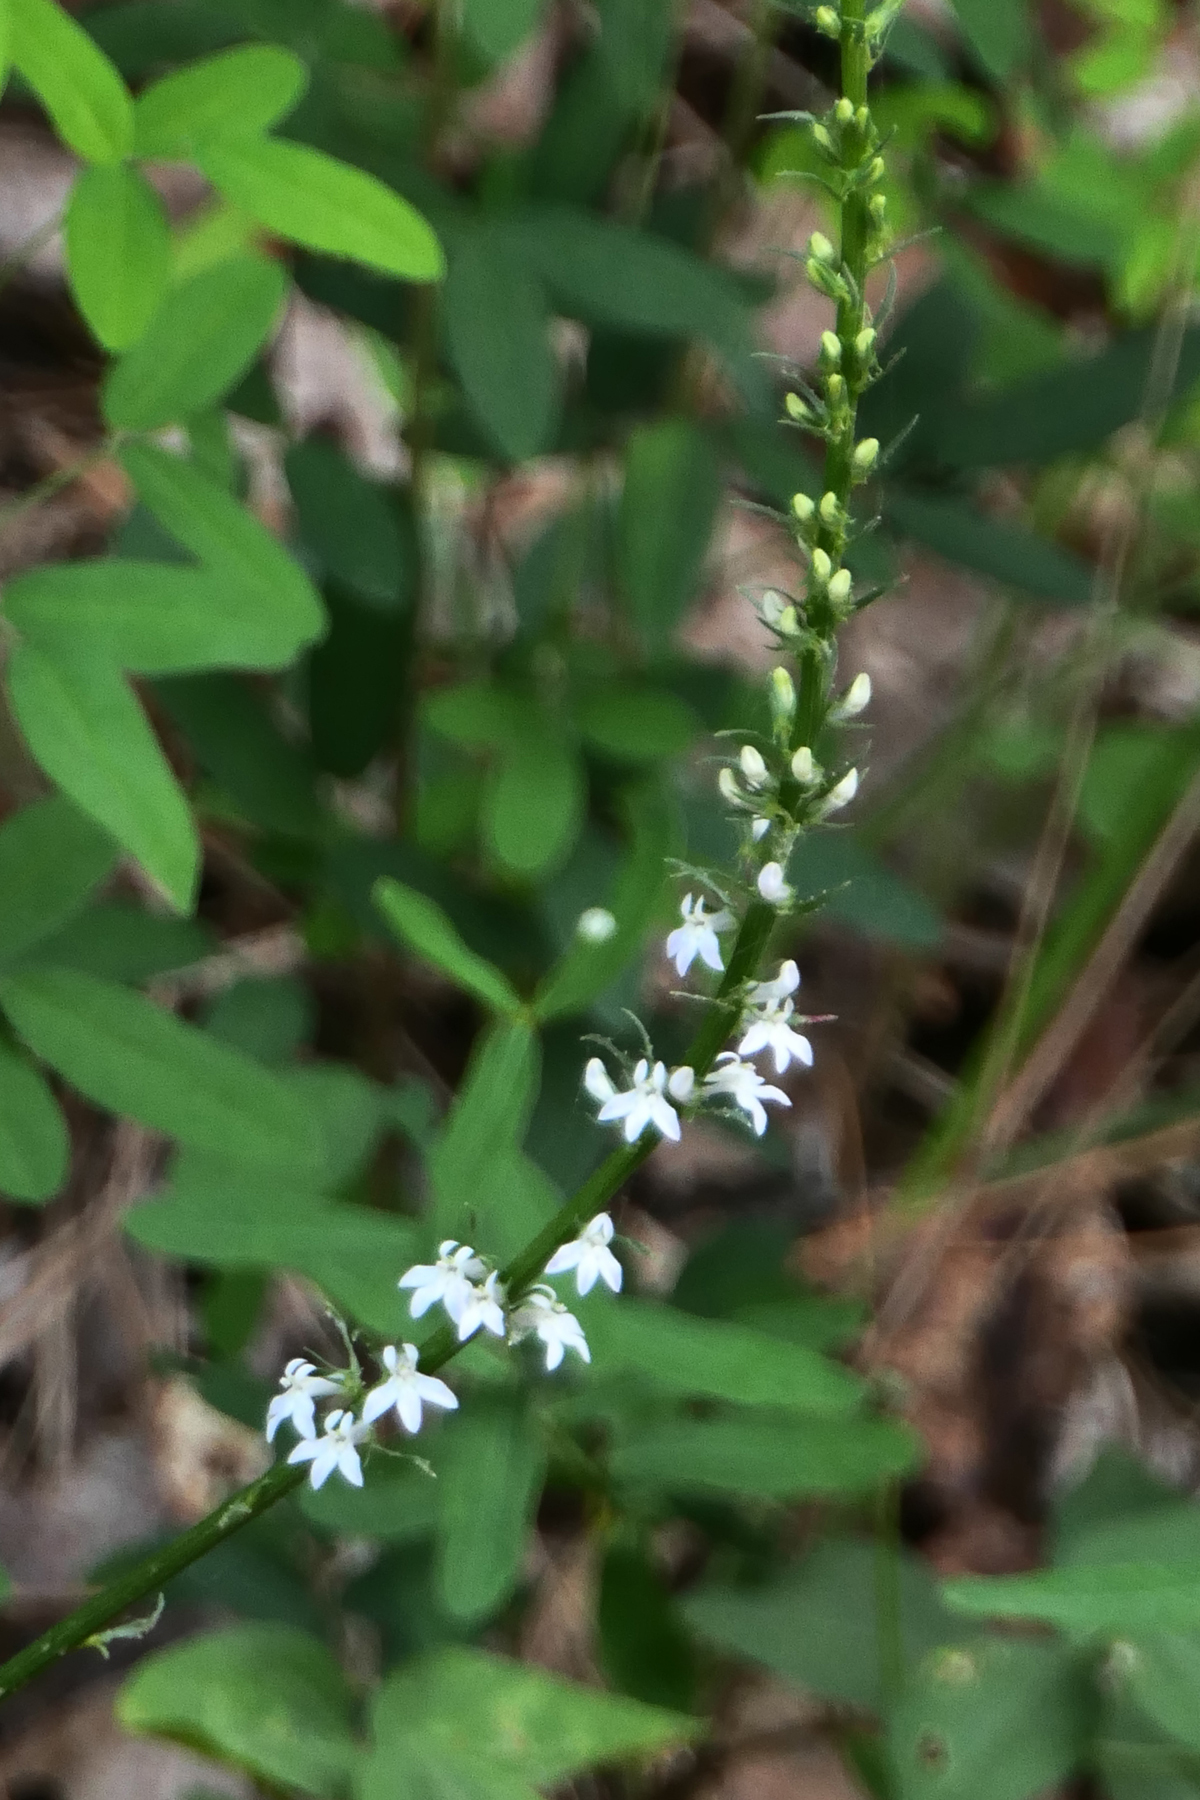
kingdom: Plantae
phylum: Tracheophyta
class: Magnoliopsida
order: Asterales
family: Campanulaceae
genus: Lobelia
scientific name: Lobelia spicata
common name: Pale-spike lobelia
